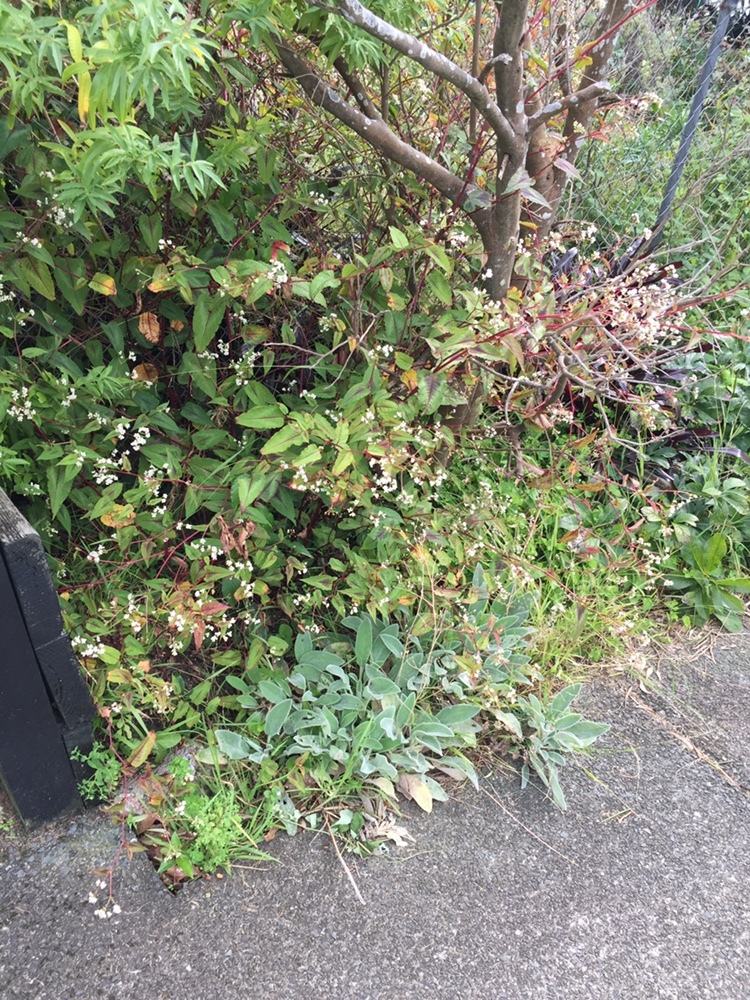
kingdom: Plantae
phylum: Tracheophyta
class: Magnoliopsida
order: Caryophyllales
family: Polygonaceae
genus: Persicaria
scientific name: Persicaria chinensis
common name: Chinese knotweed
